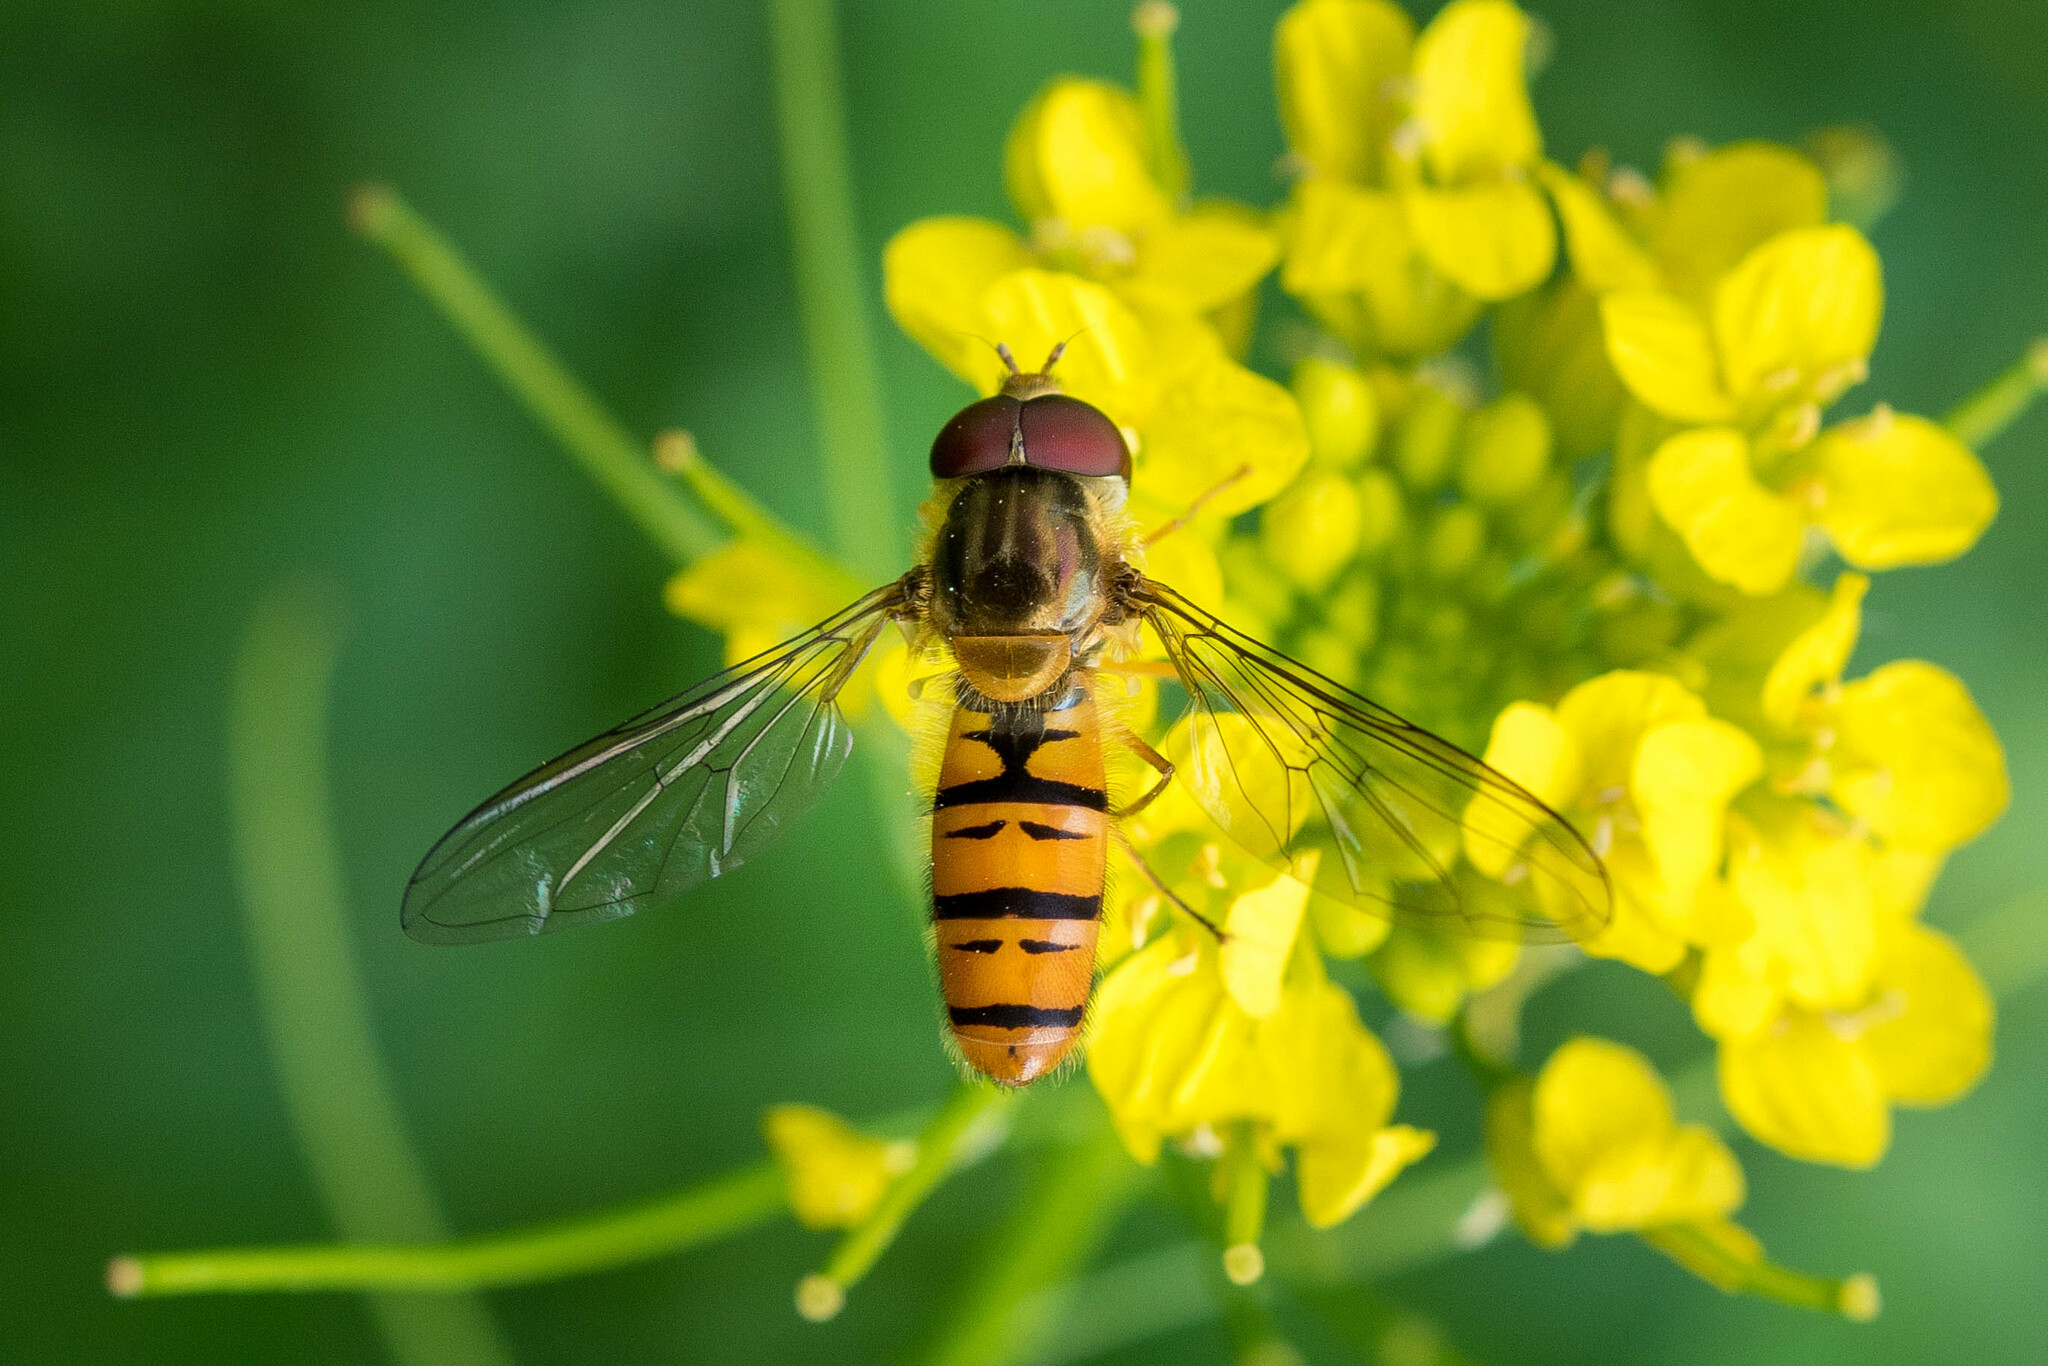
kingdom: Animalia
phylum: Arthropoda
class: Insecta
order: Diptera
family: Syrphidae
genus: Episyrphus
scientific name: Episyrphus balteatus
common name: Marmalade hoverfly
